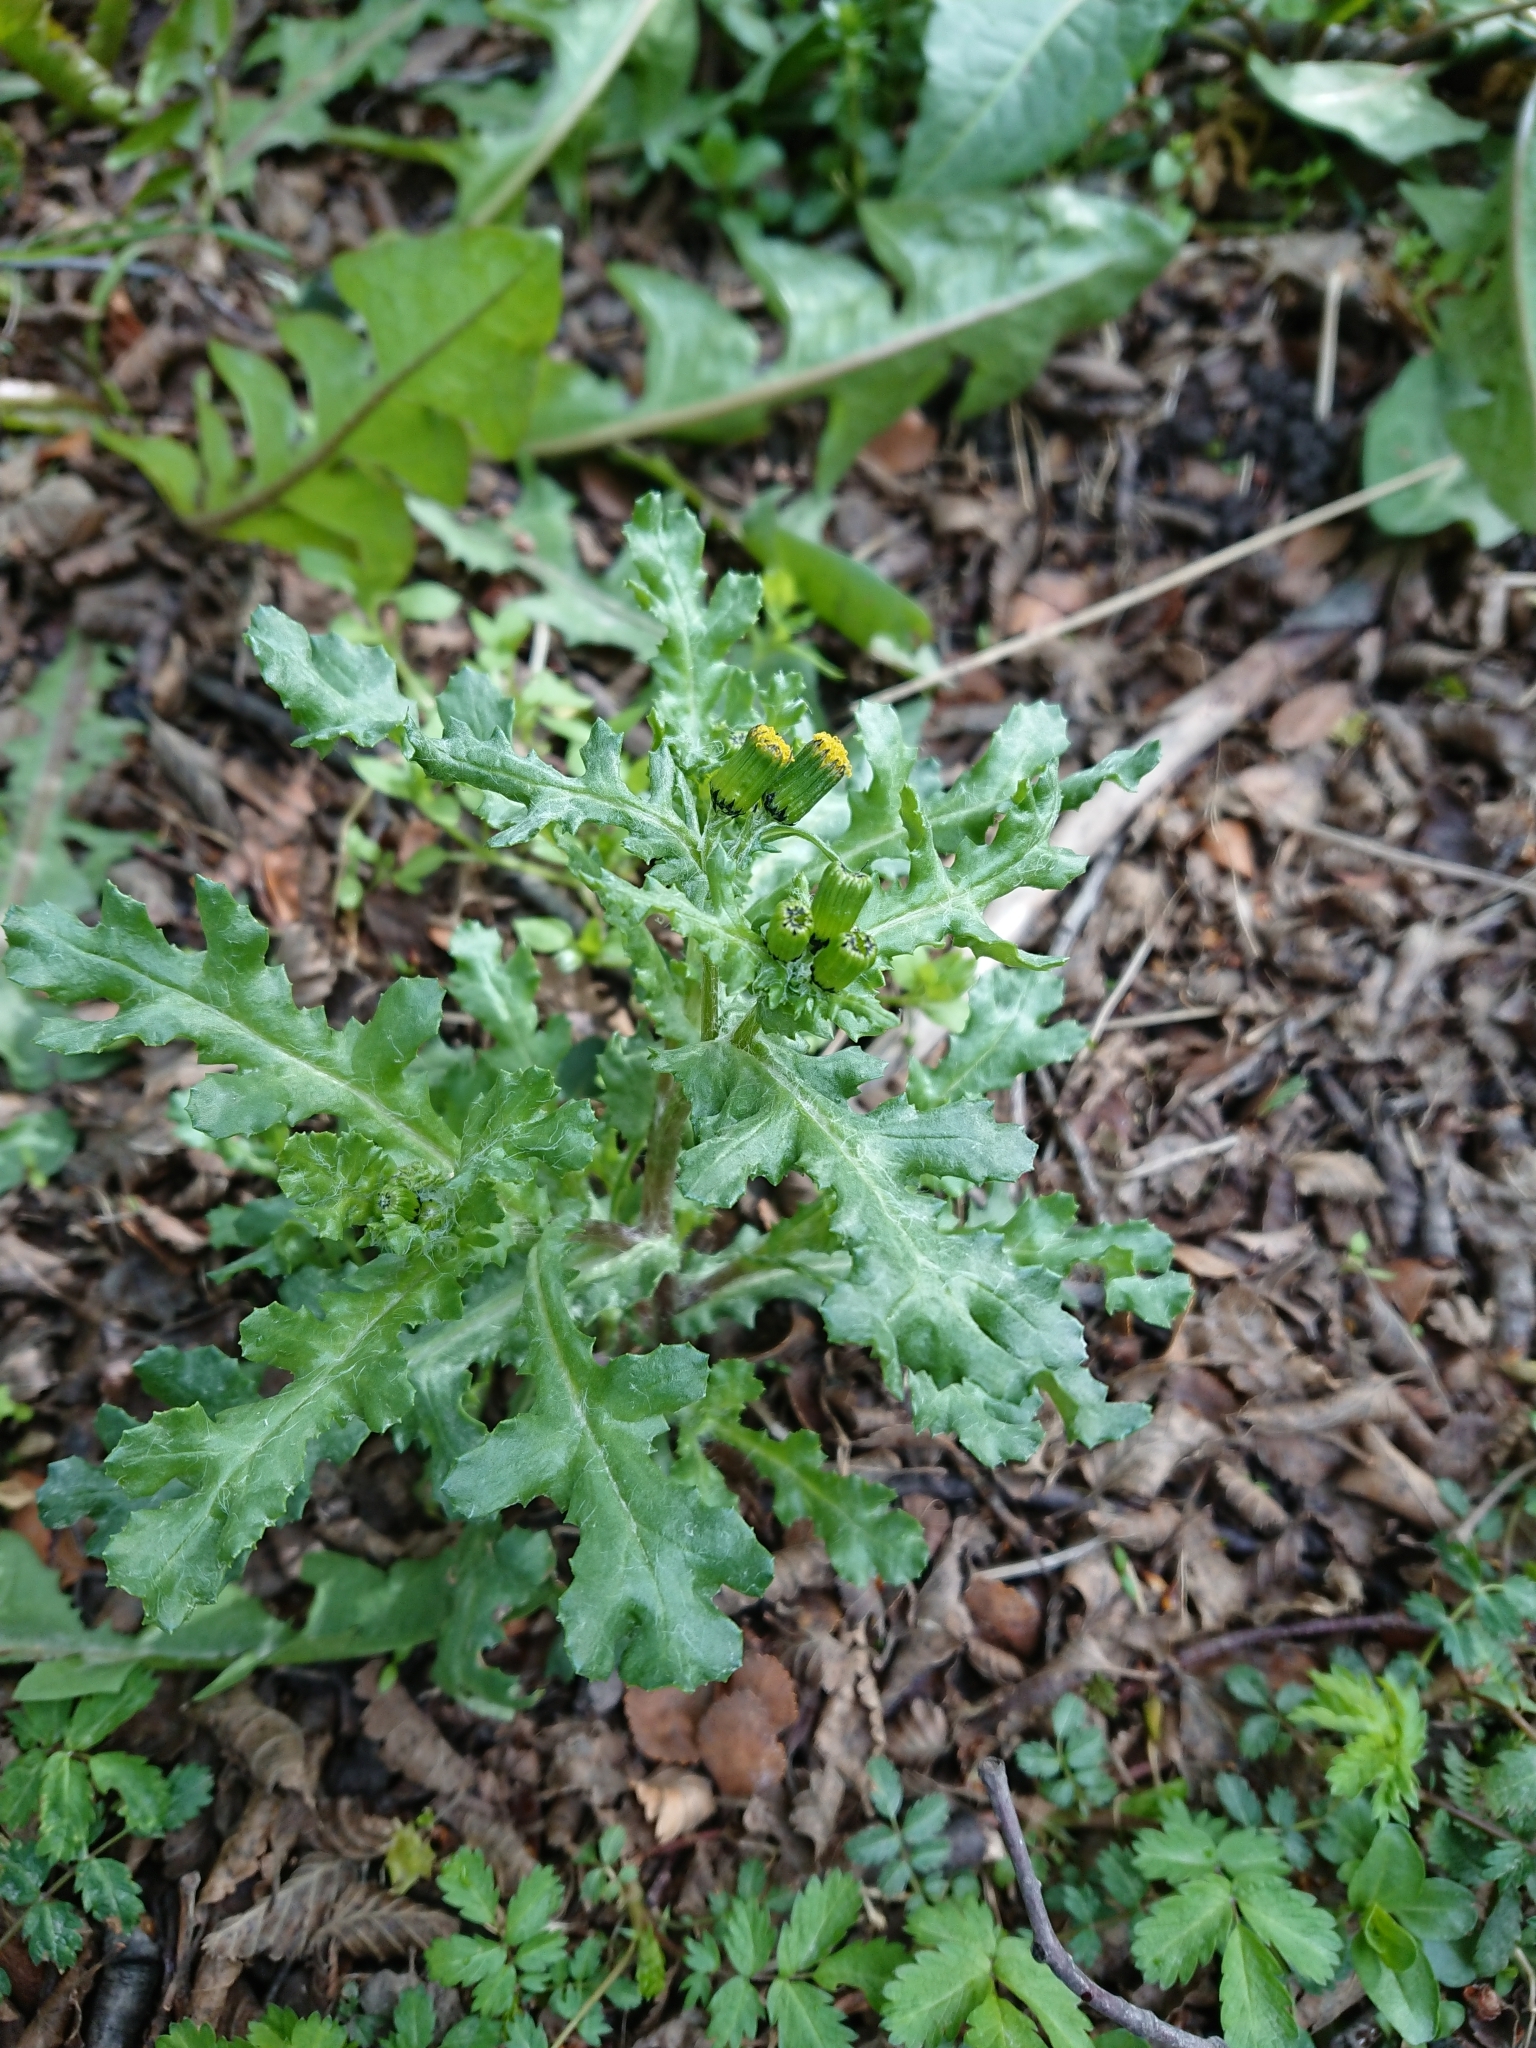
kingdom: Plantae
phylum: Tracheophyta
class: Magnoliopsida
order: Asterales
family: Asteraceae
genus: Senecio
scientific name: Senecio vulgaris
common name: Old-man-in-the-spring
